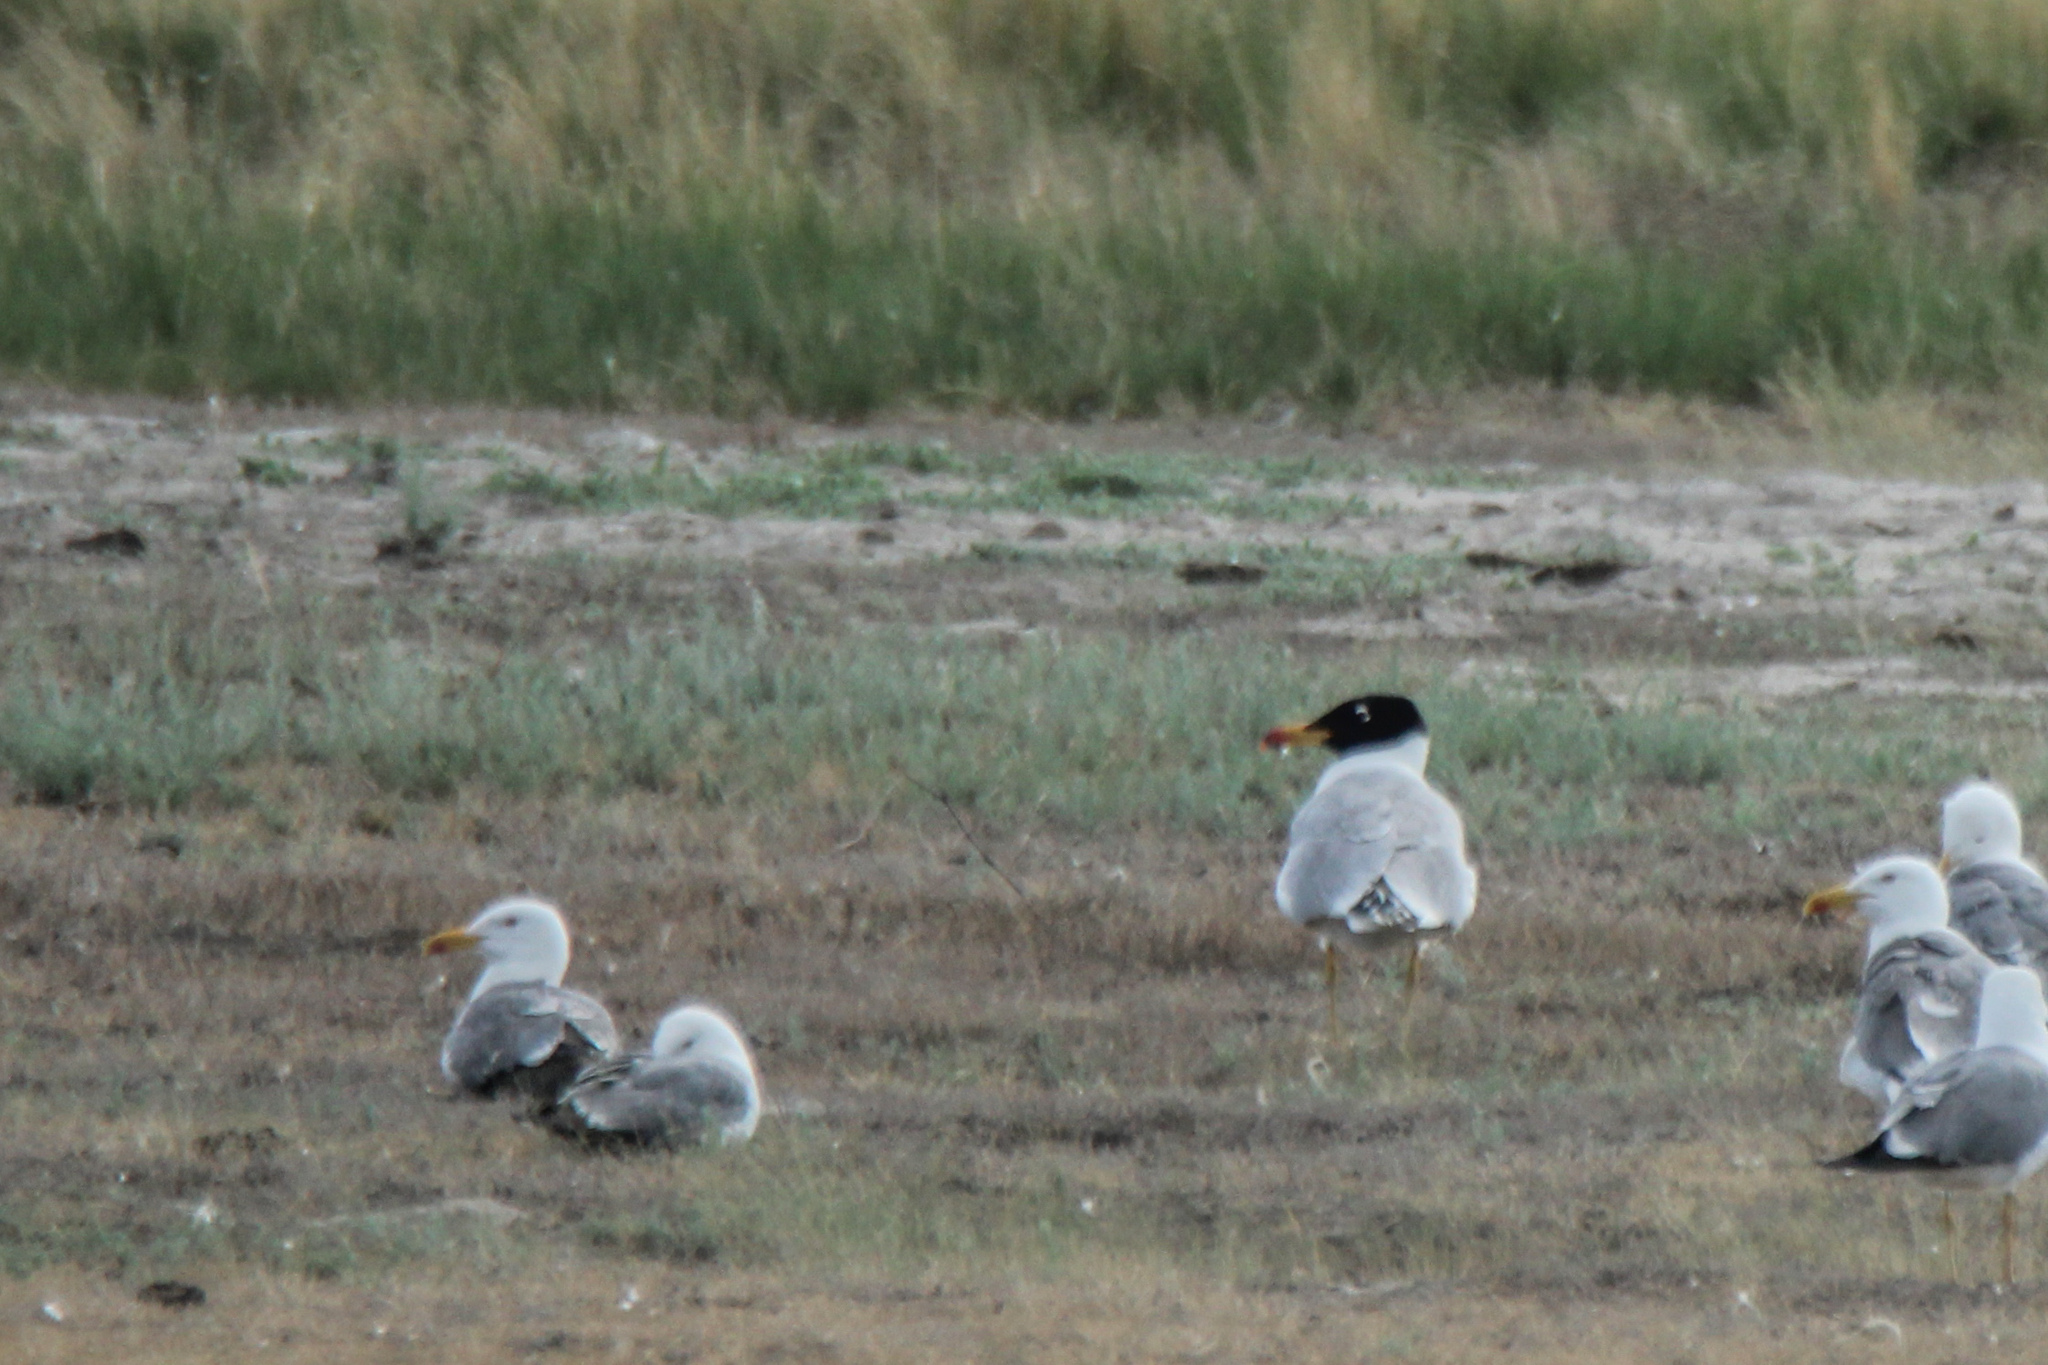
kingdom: Animalia
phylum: Chordata
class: Aves
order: Charadriiformes
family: Laridae
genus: Ichthyaetus
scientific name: Ichthyaetus ichthyaetus
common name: Pallas's gull
